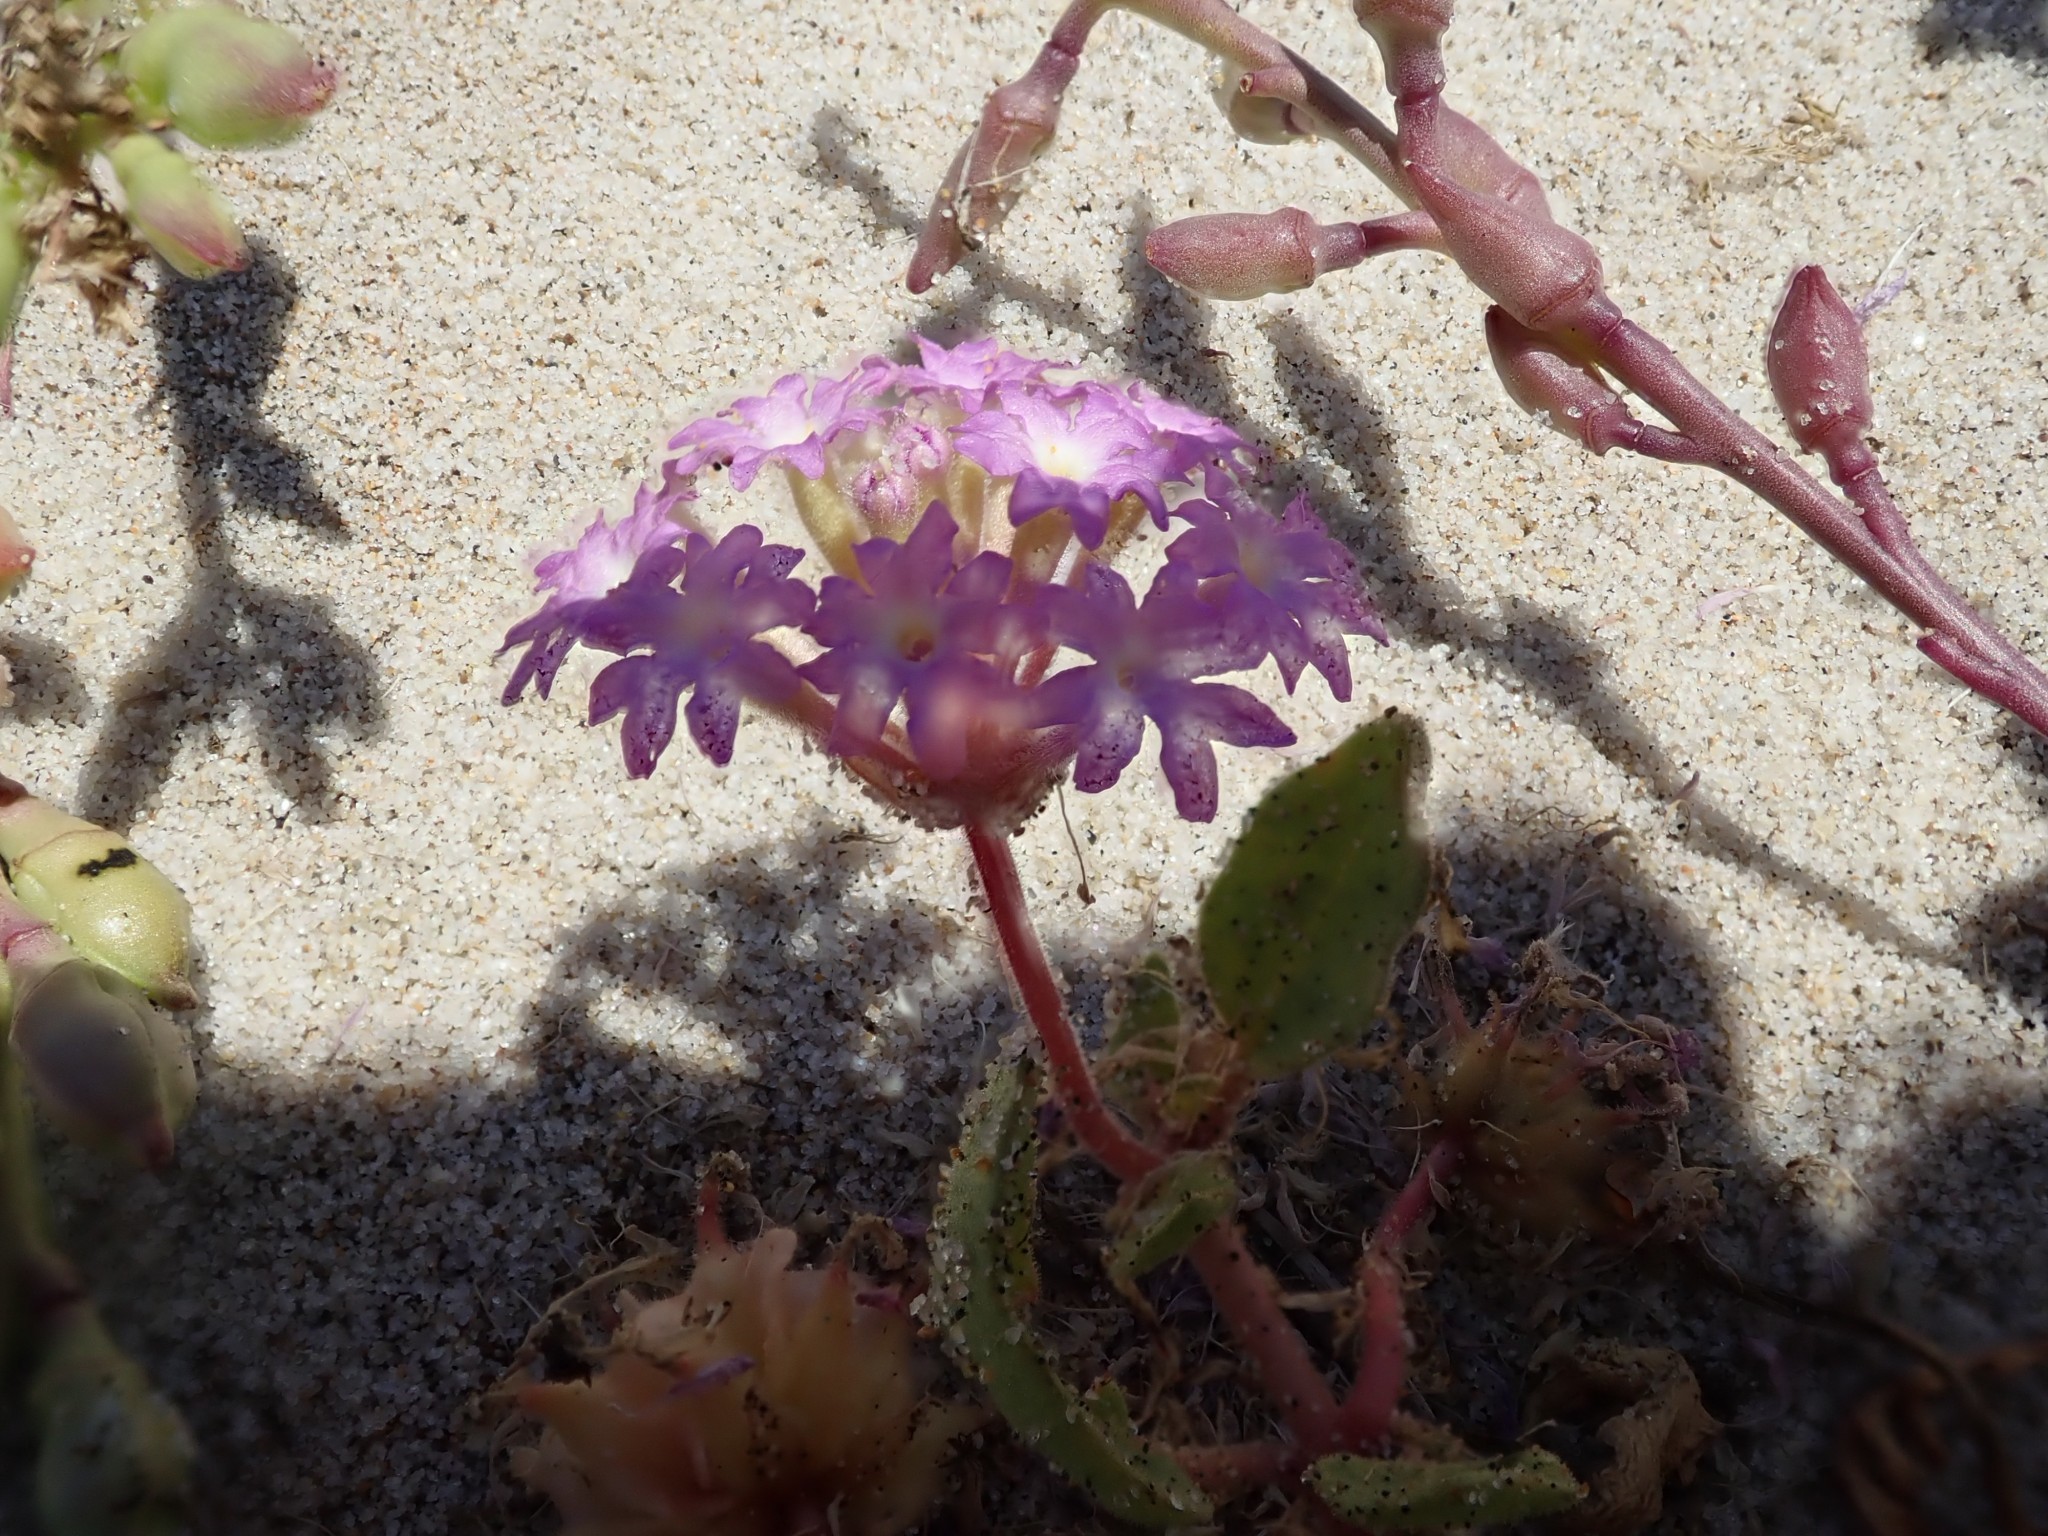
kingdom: Plantae
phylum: Tracheophyta
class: Magnoliopsida
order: Caryophyllales
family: Nyctaginaceae
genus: Abronia
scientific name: Abronia umbellata
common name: Sand-verbena
